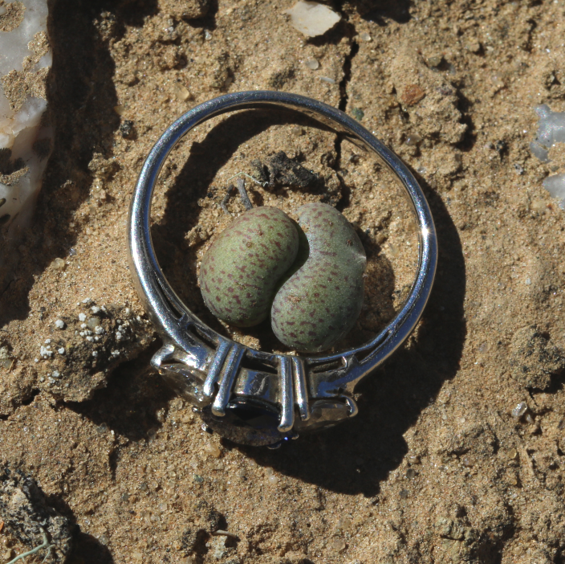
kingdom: Plantae
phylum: Tracheophyta
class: Magnoliopsida
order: Saxifragales
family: Crassulaceae
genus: Tylecodon
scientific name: Tylecodon schaeferianus
